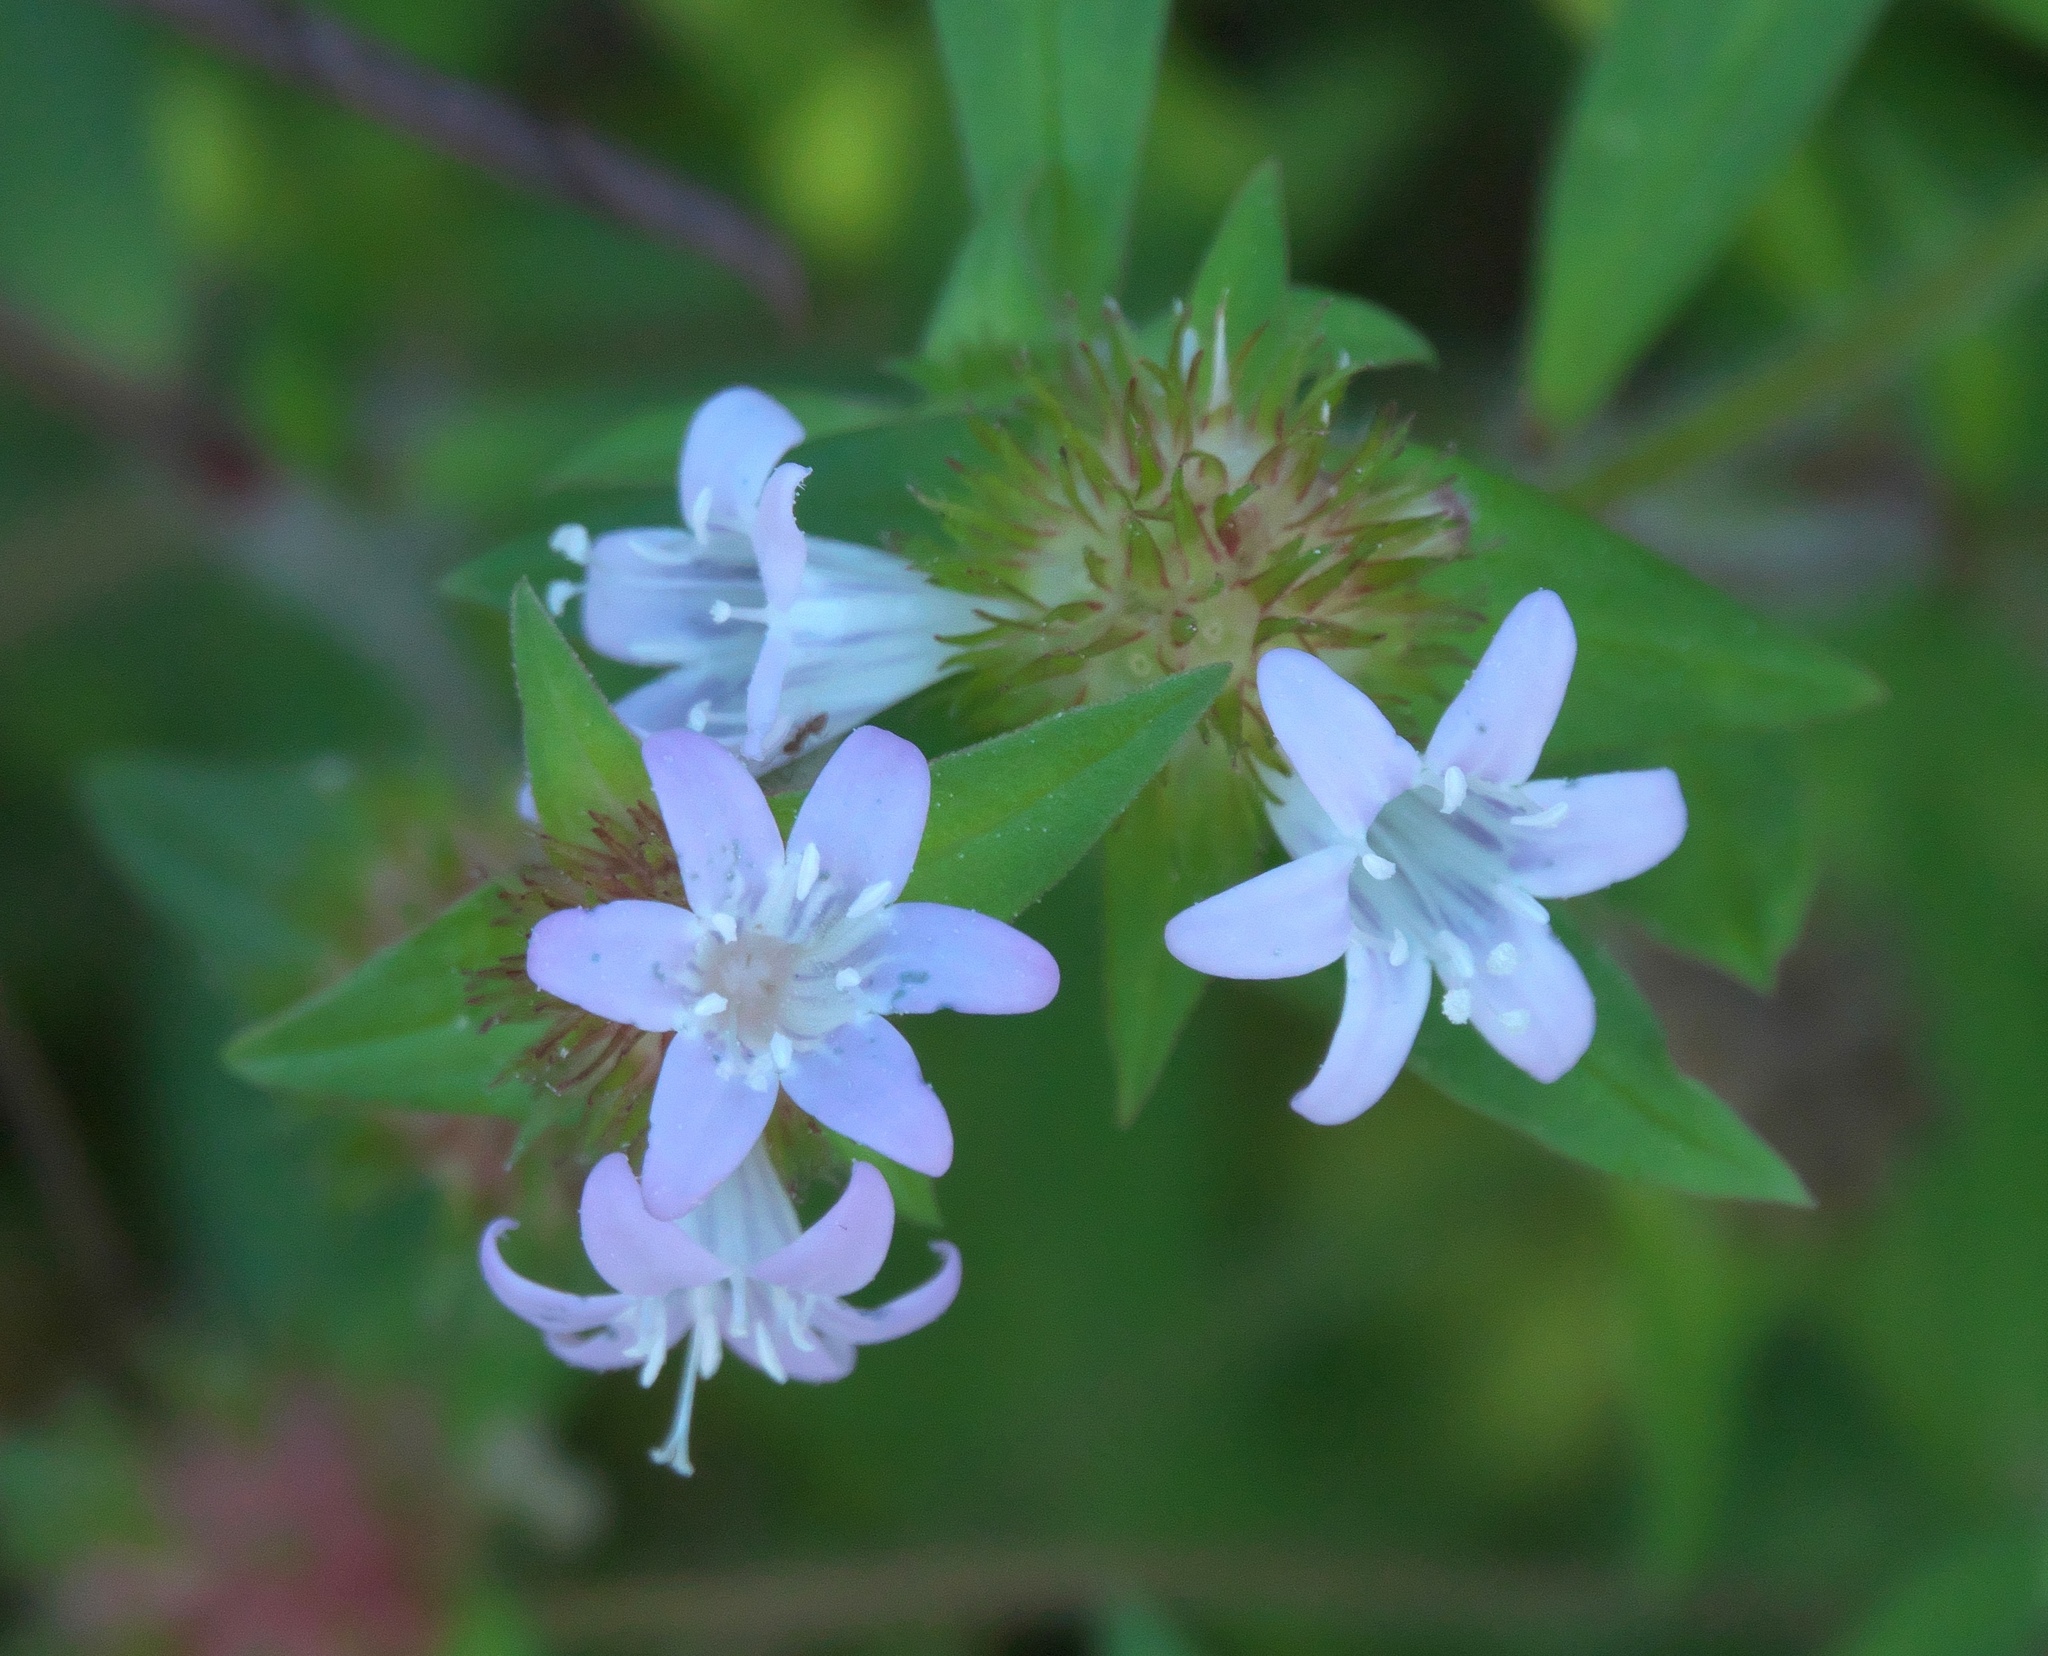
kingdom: Plantae
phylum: Tracheophyta
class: Magnoliopsida
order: Gentianales
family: Rubiaceae
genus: Richardia
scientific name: Richardia grandiflora
